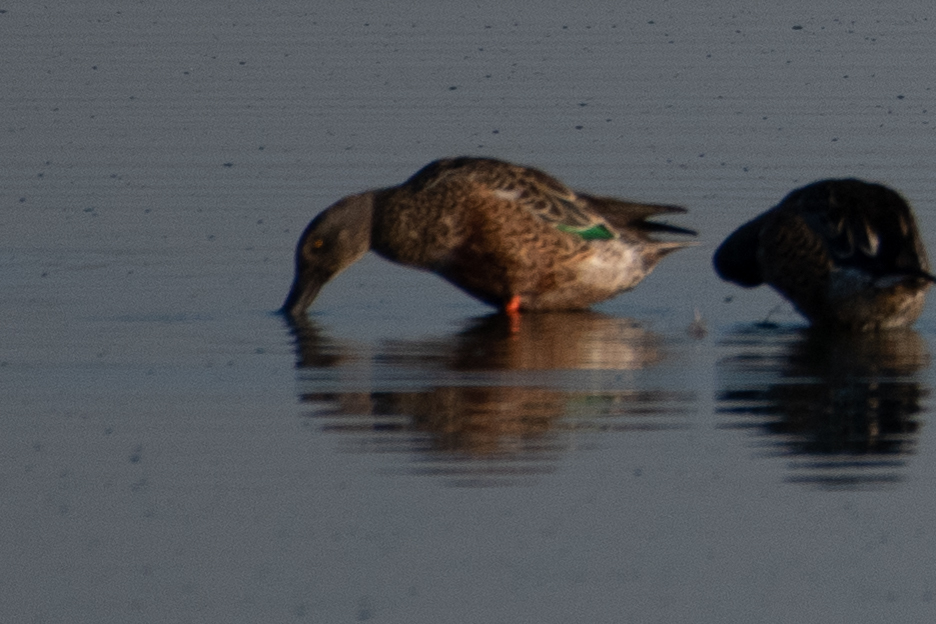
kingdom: Animalia
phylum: Chordata
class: Aves
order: Anseriformes
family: Anatidae
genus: Spatula
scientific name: Spatula clypeata
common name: Northern shoveler
